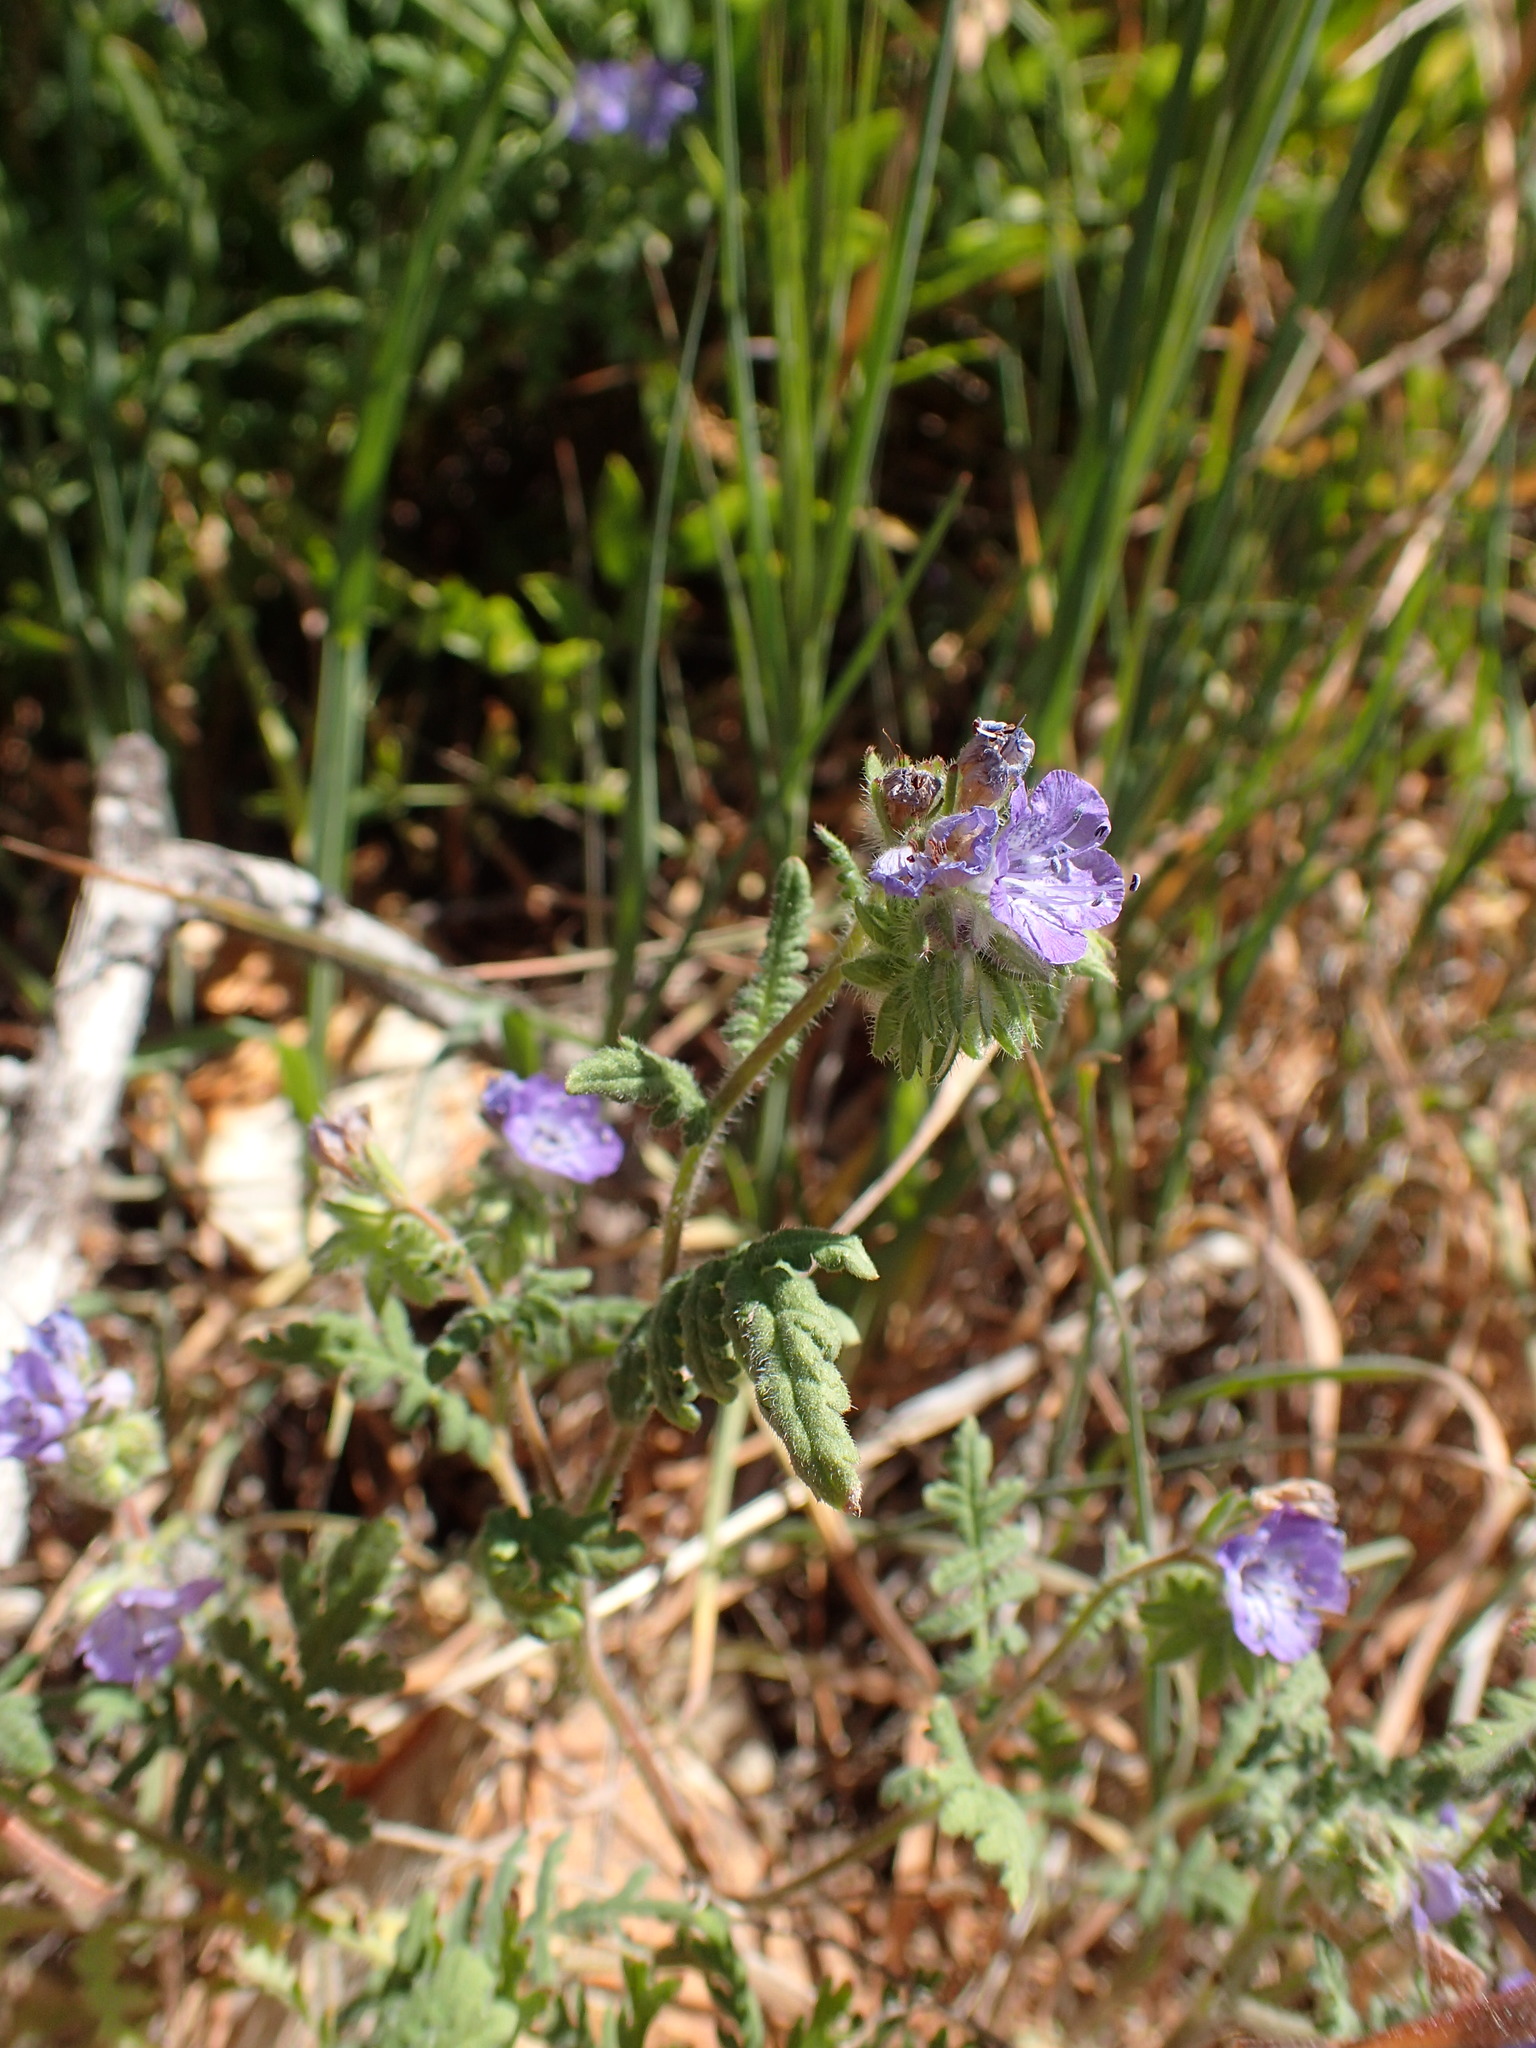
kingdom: Plantae
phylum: Tracheophyta
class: Magnoliopsida
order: Boraginales
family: Hydrophyllaceae
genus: Phacelia
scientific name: Phacelia distans
